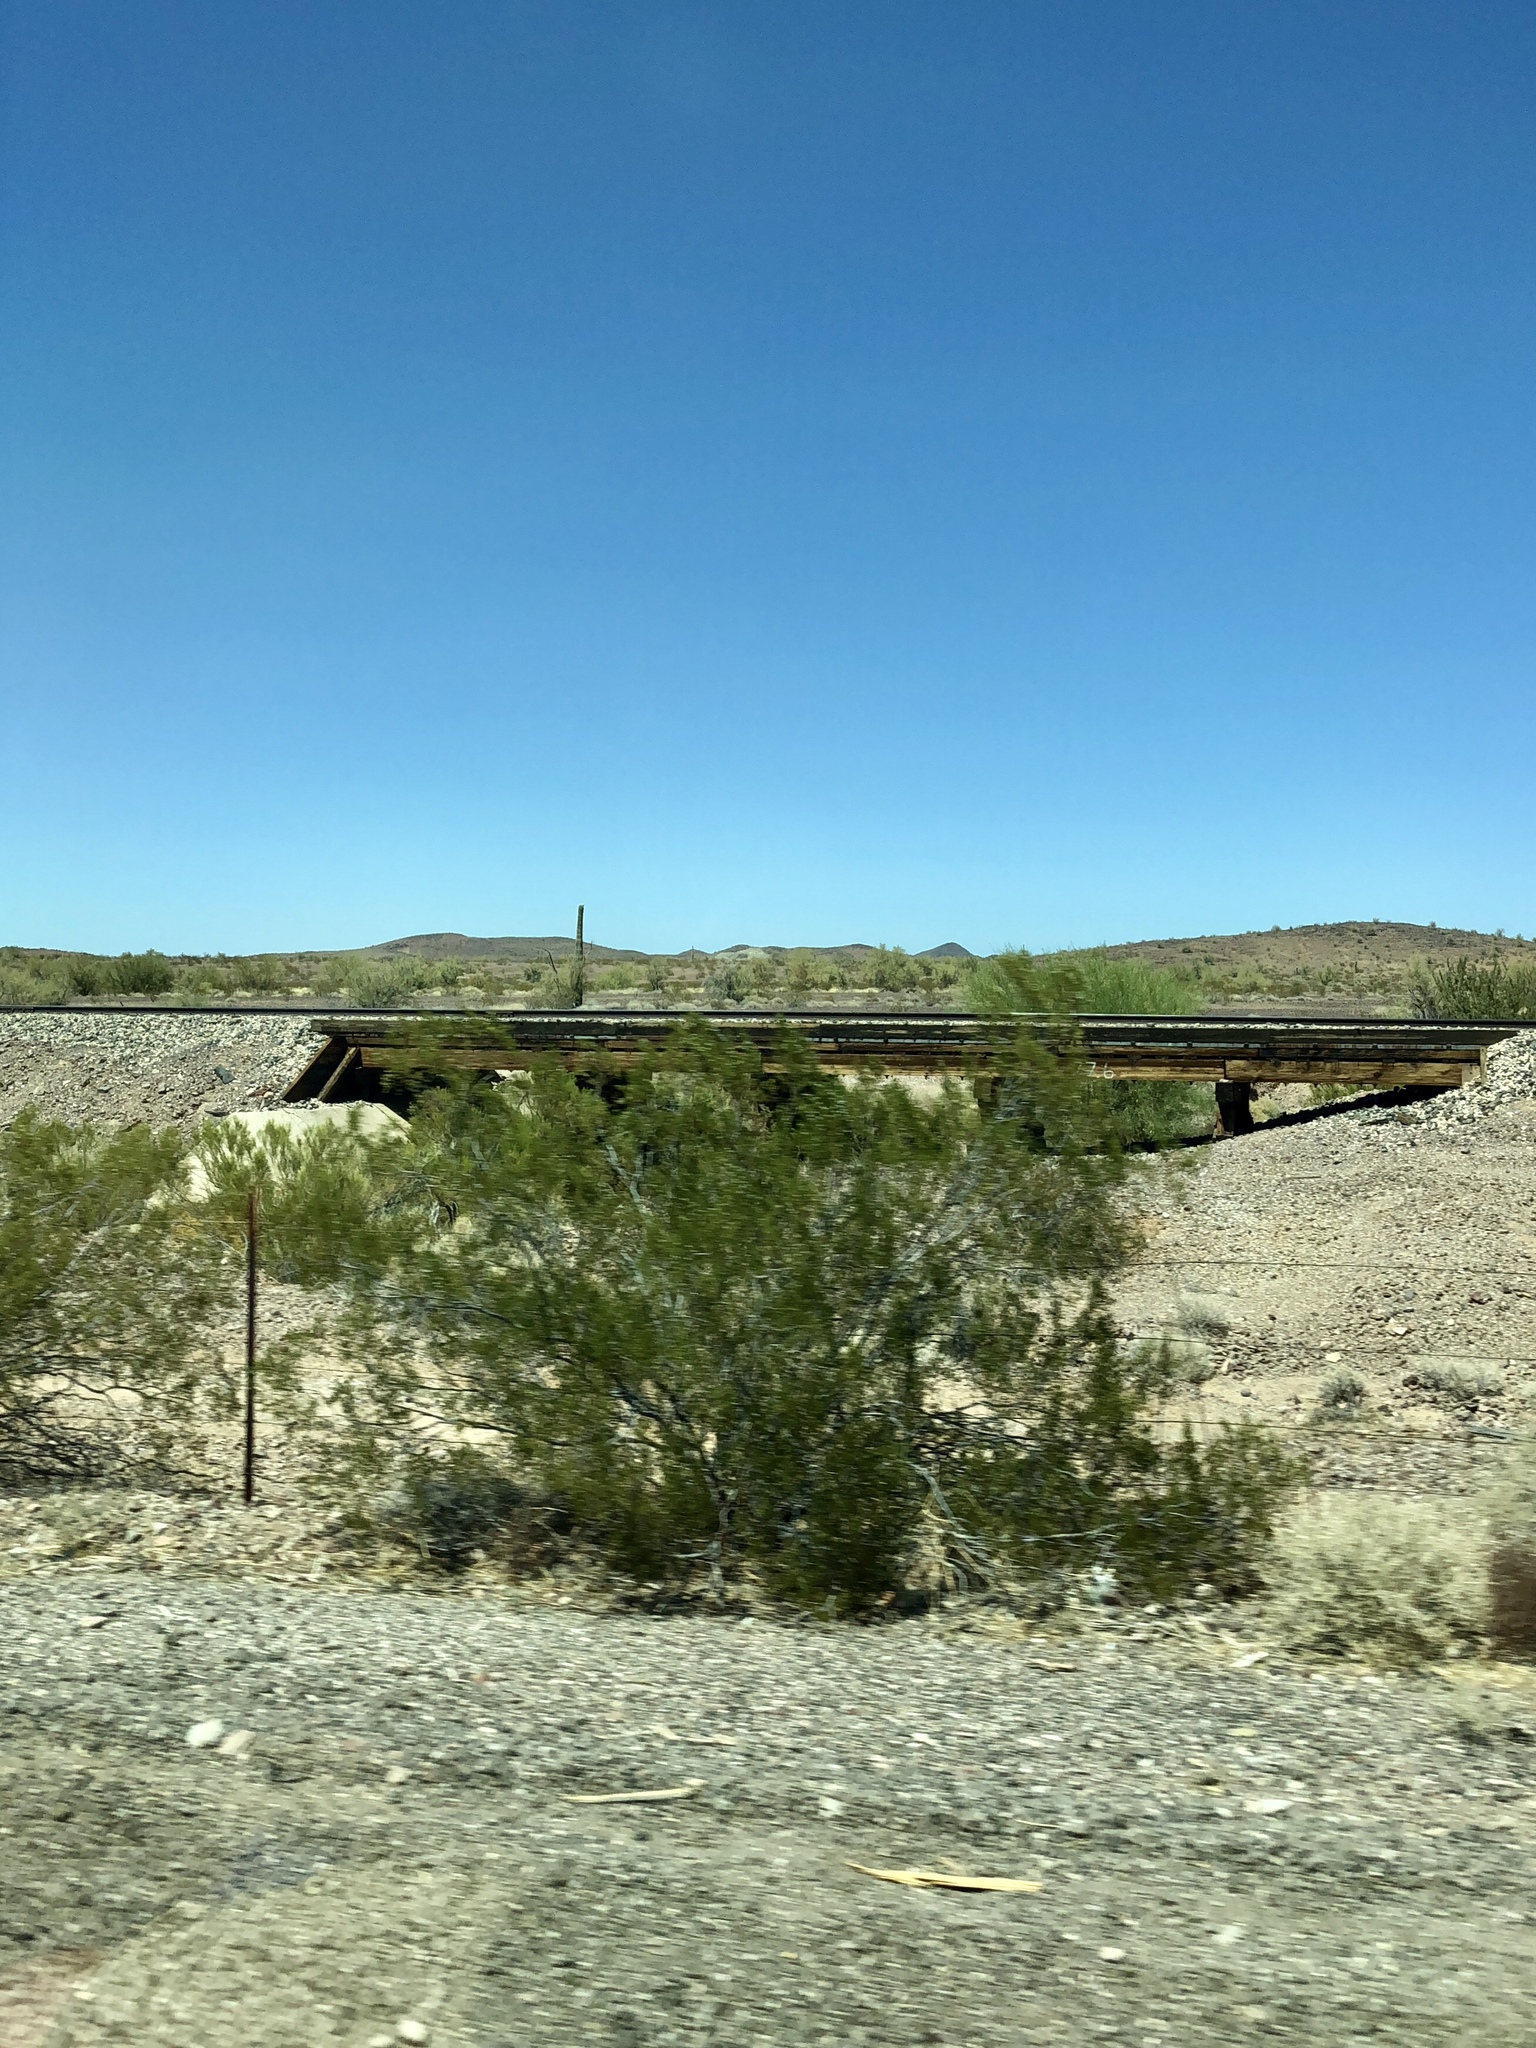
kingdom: Plantae
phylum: Tracheophyta
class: Magnoliopsida
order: Zygophyllales
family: Zygophyllaceae
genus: Larrea
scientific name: Larrea tridentata
